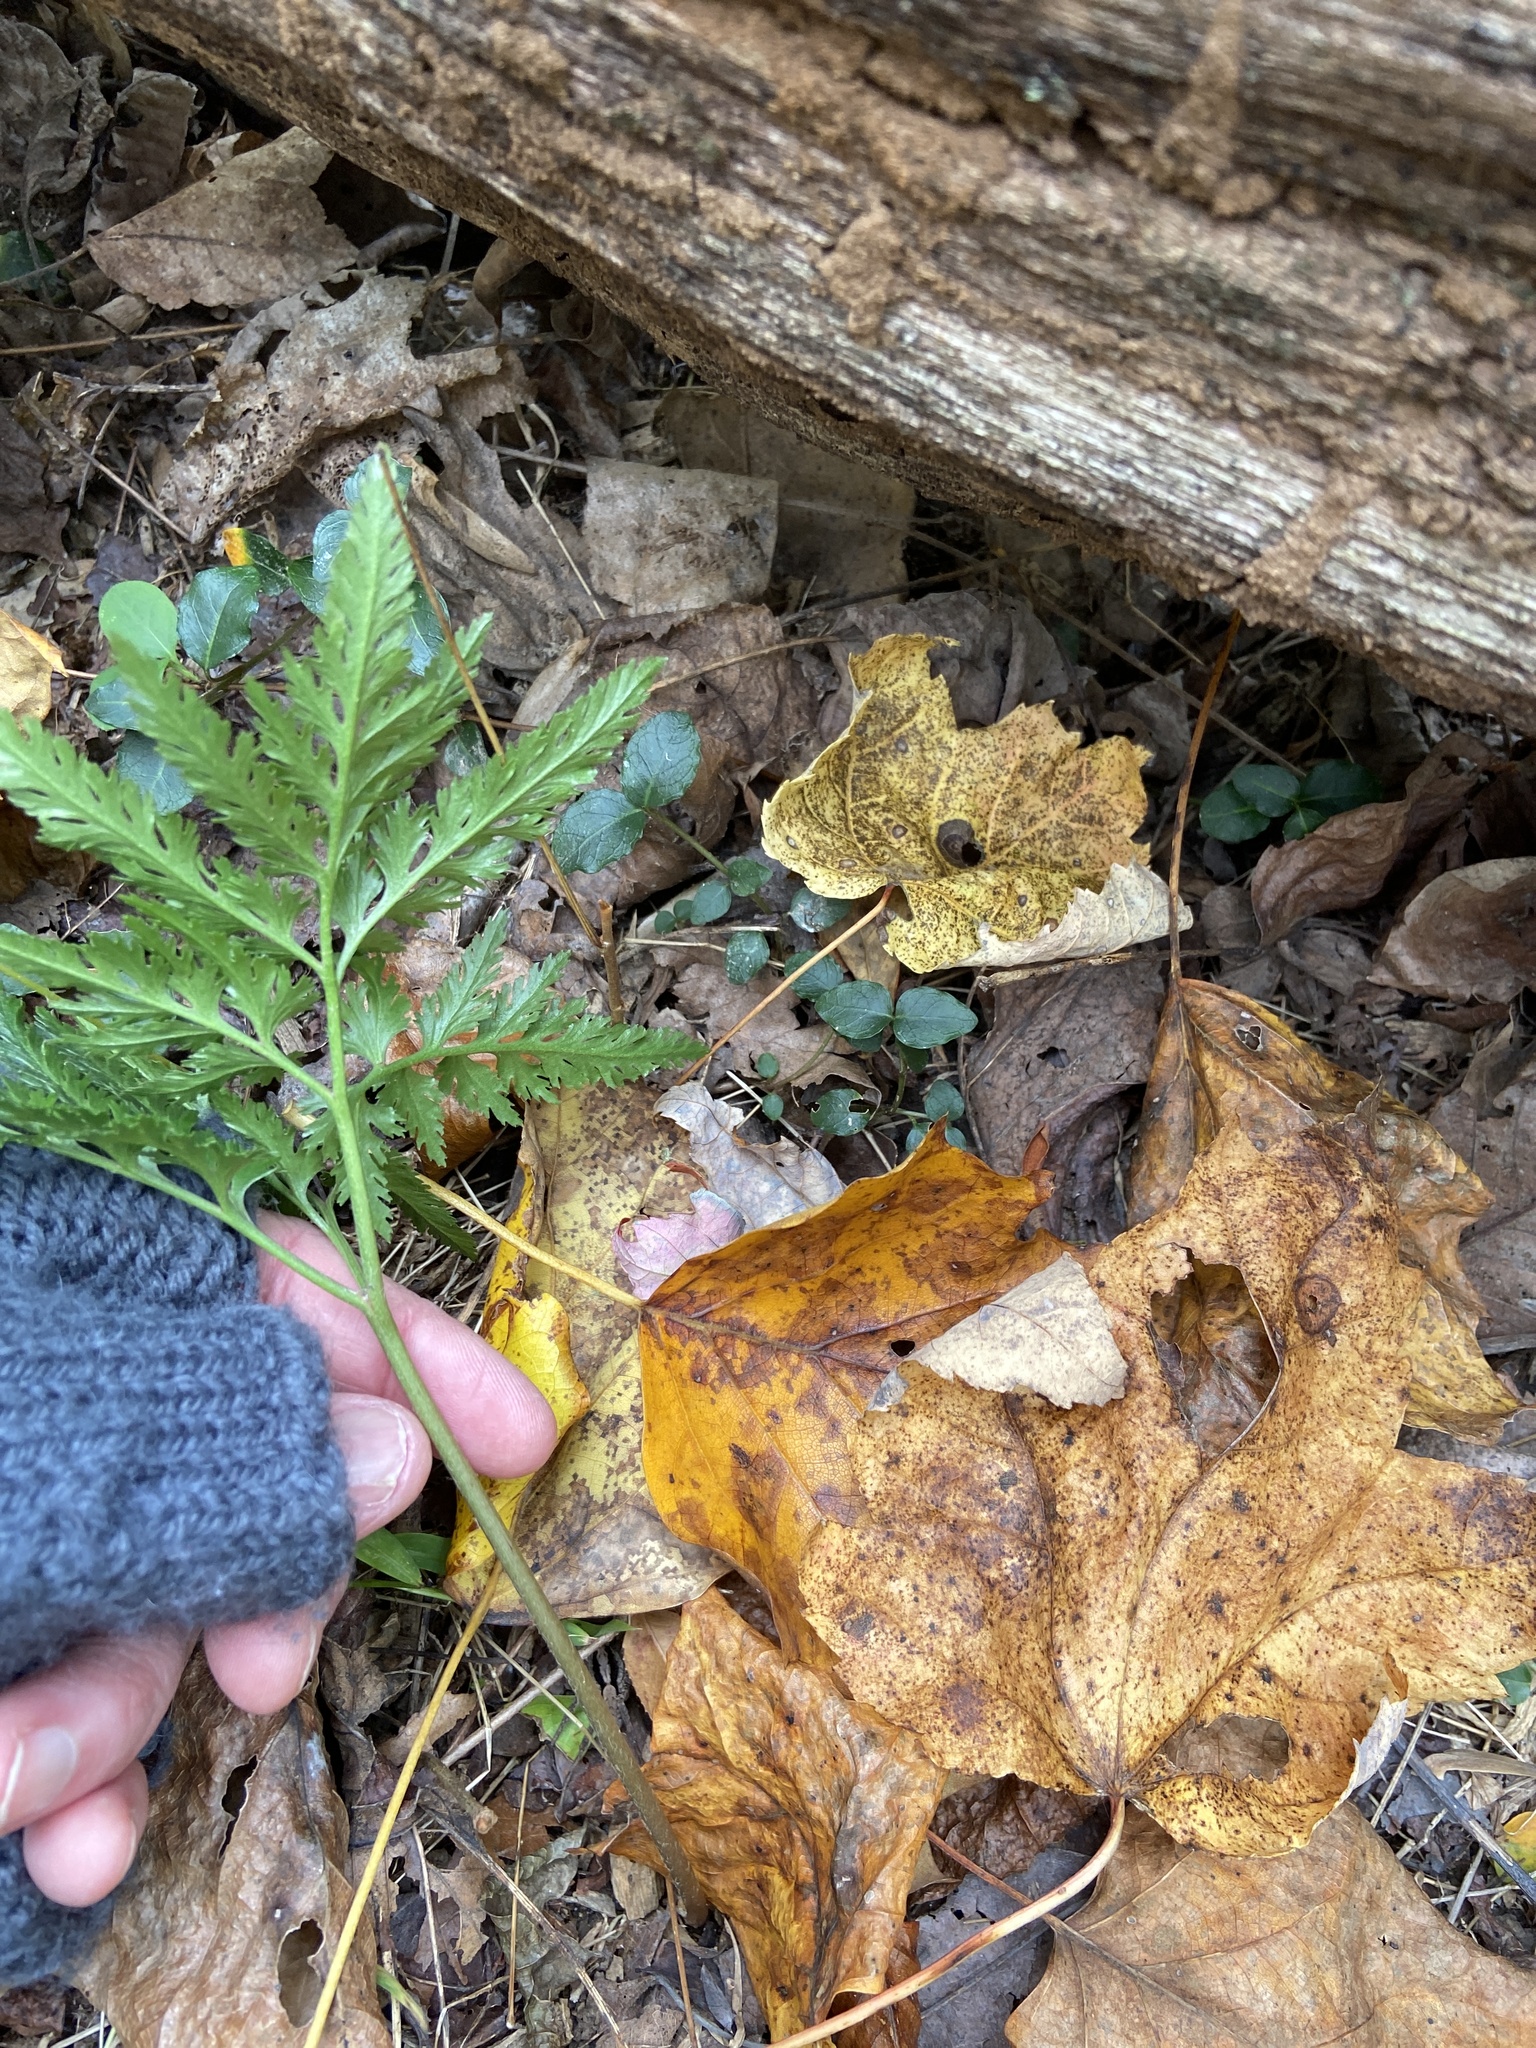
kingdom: Plantae
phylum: Tracheophyta
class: Polypodiopsida
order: Ophioglossales
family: Ophioglossaceae
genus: Sceptridium
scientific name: Sceptridium dissectum
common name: Cut-leaved grapefern
